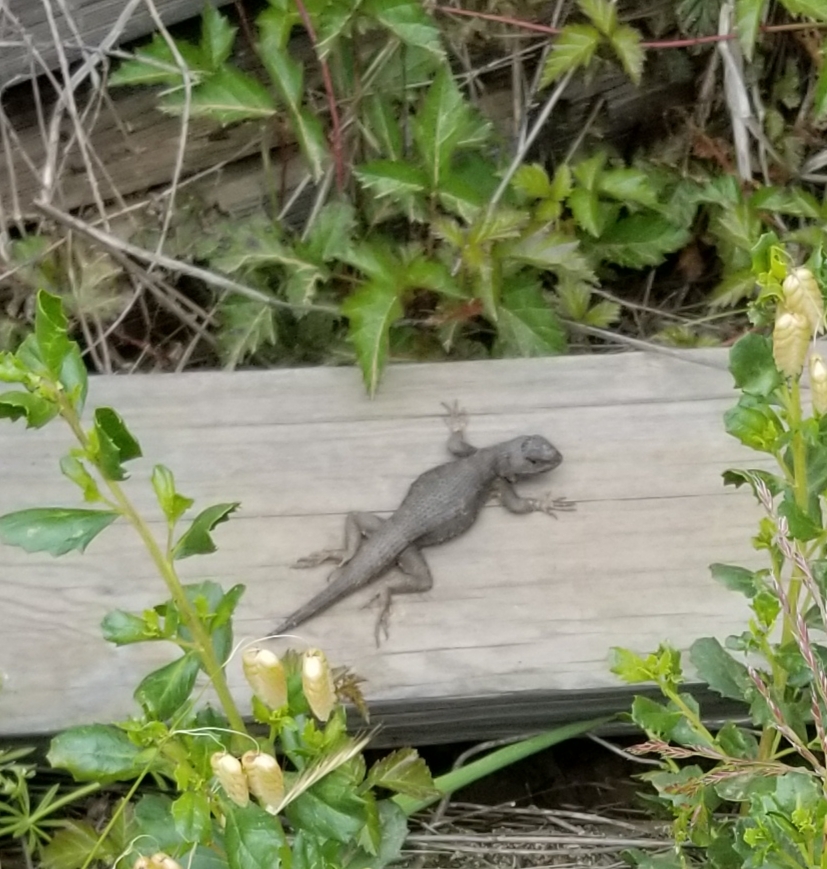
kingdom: Animalia
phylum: Chordata
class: Squamata
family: Phrynosomatidae
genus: Sceloporus
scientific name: Sceloporus occidentalis
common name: Western fence lizard
